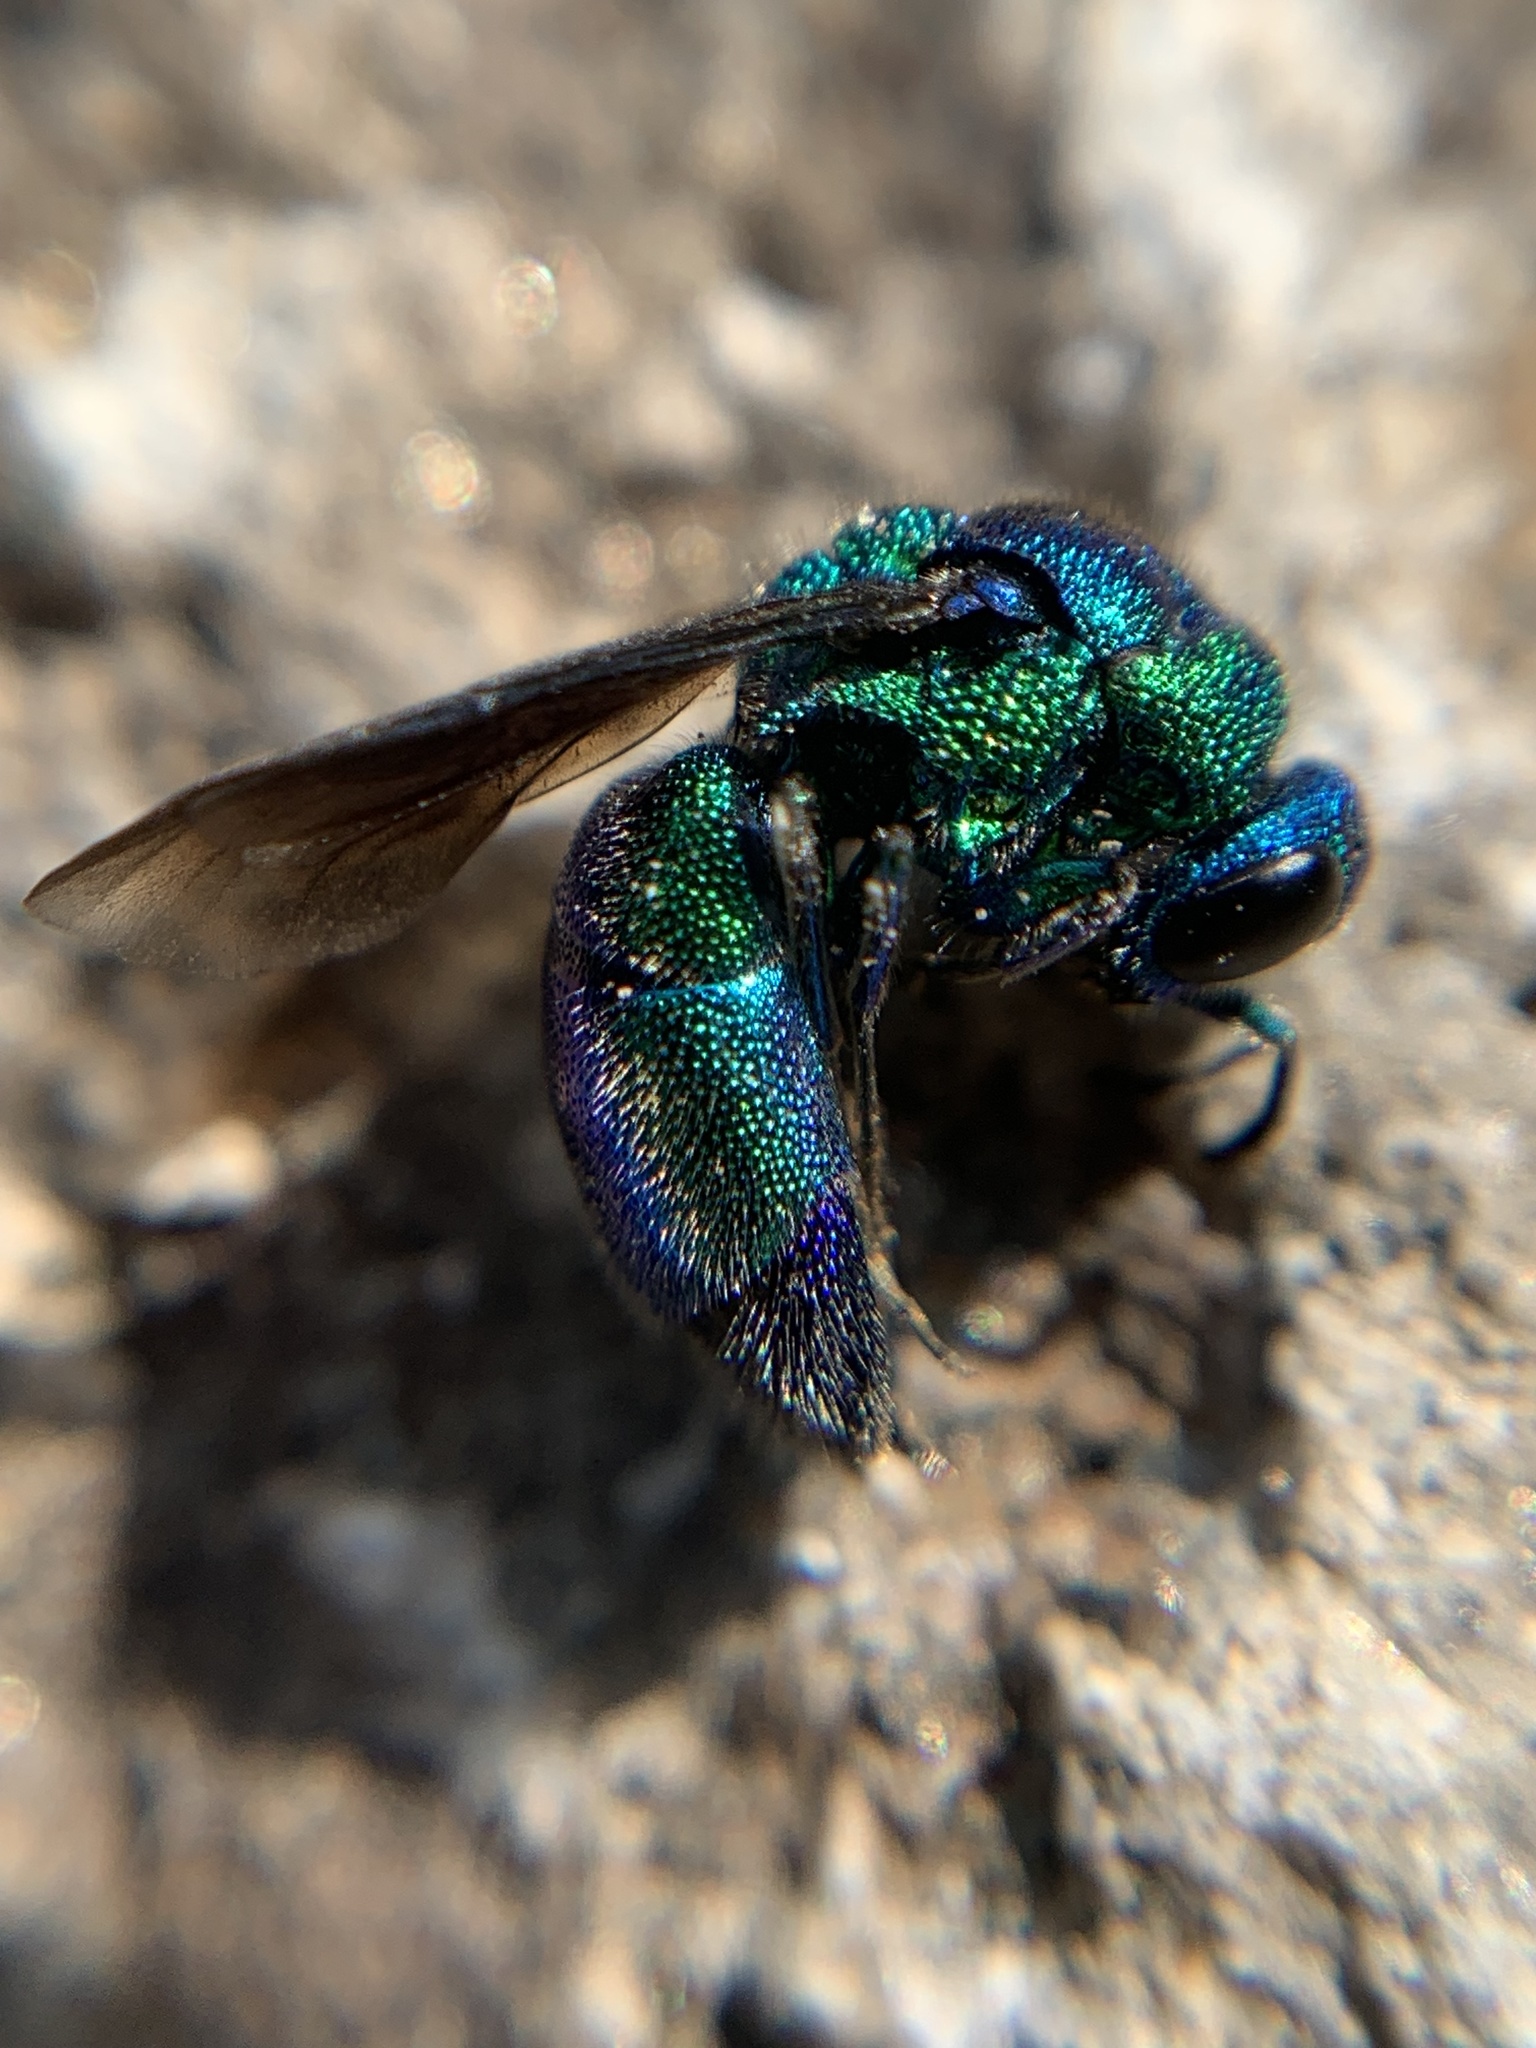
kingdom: Animalia
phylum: Arthropoda
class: Insecta
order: Hymenoptera
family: Chrysididae
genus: Chrysis
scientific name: Chrysis angolensis
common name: Cuckoo wasp
